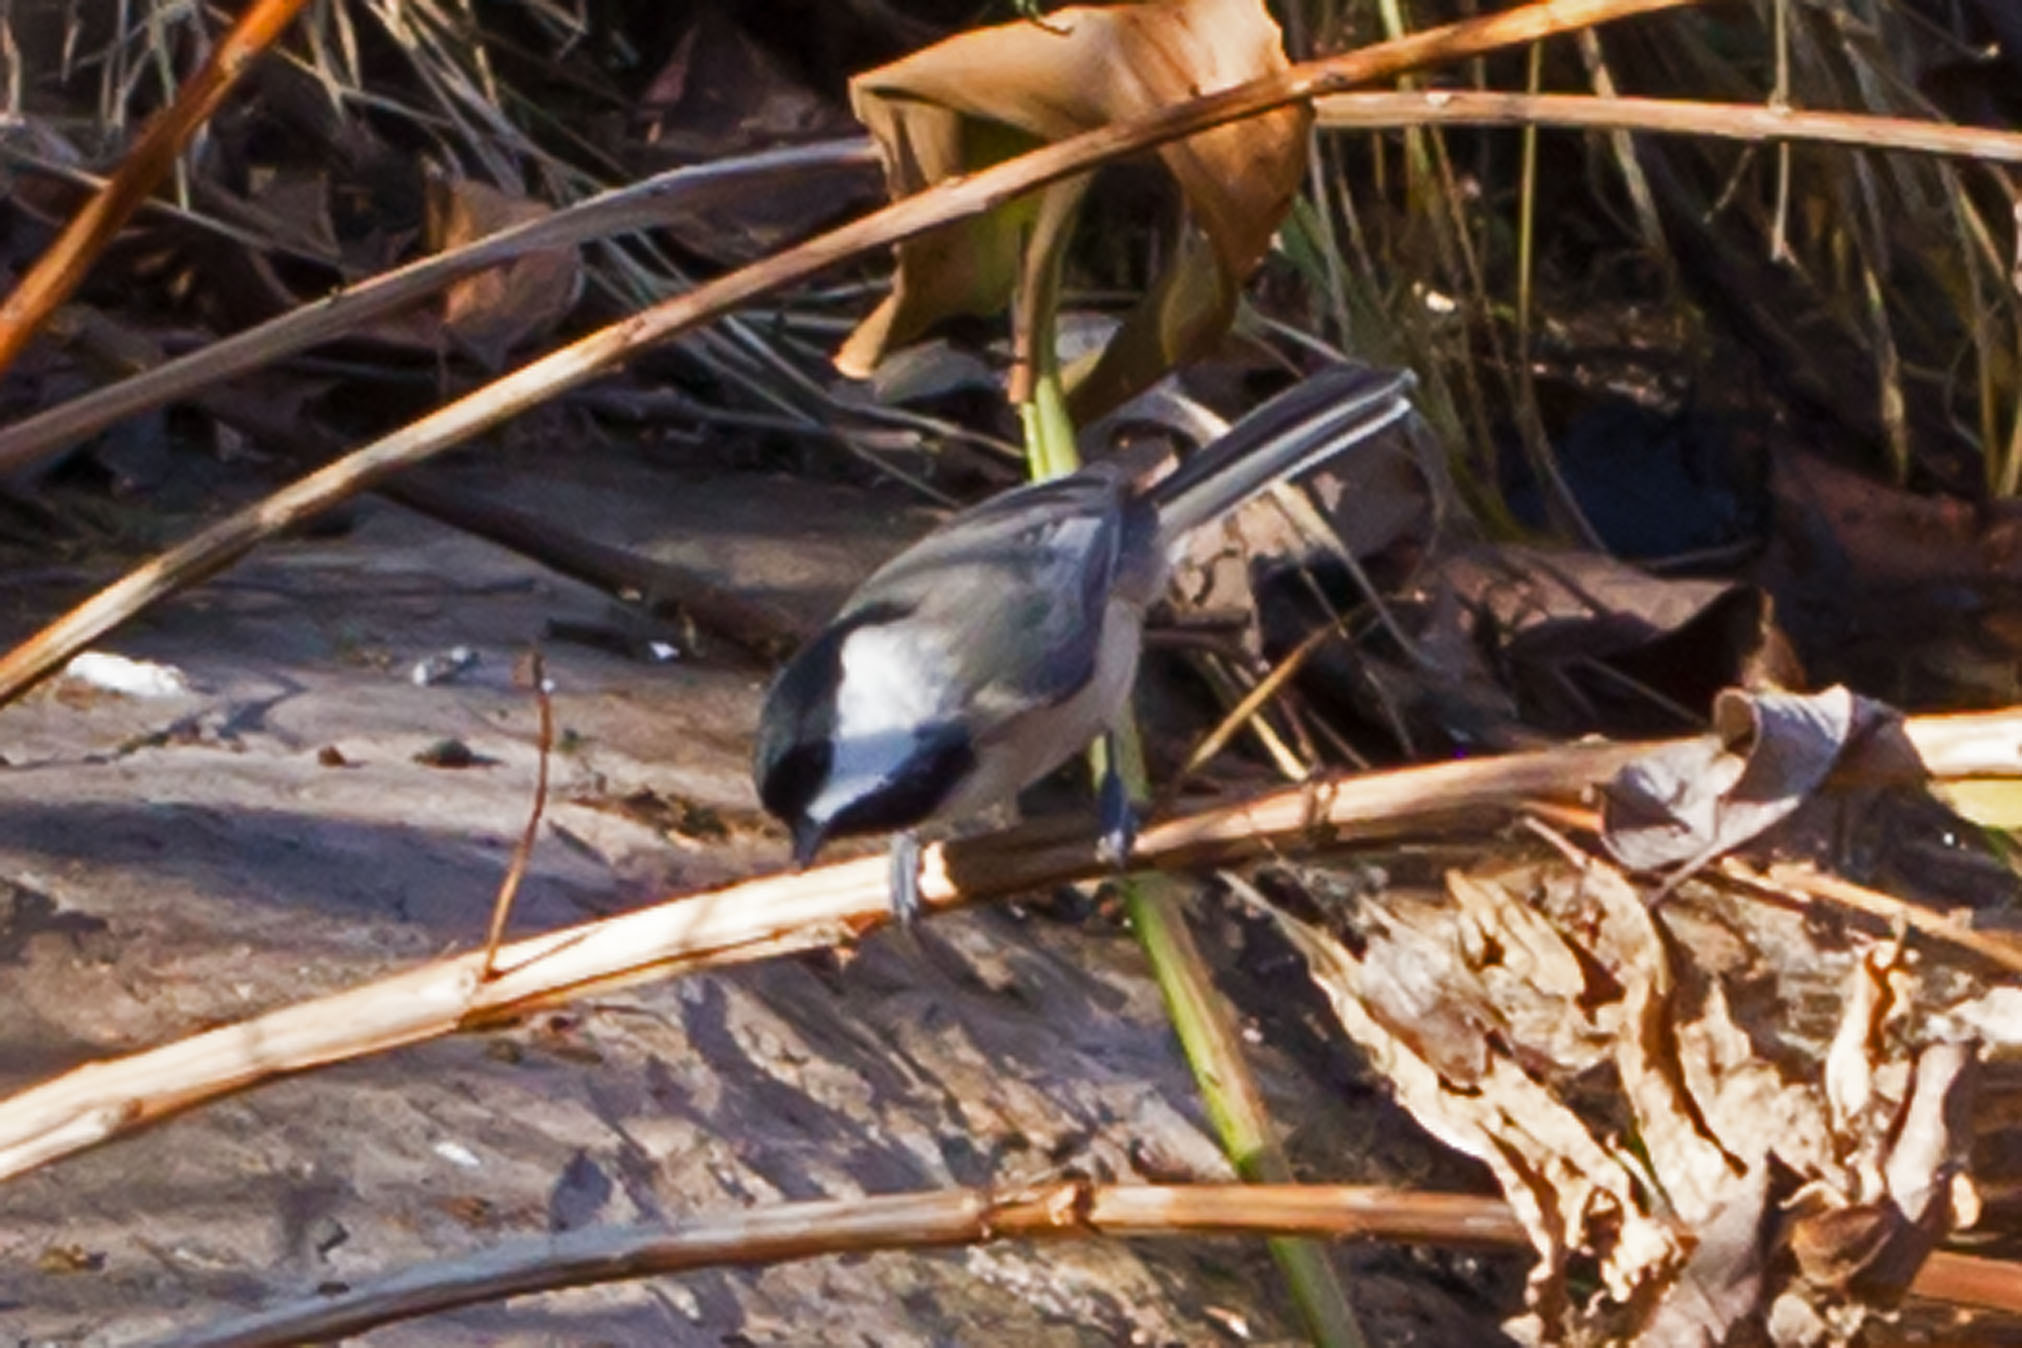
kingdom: Animalia
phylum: Chordata
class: Aves
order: Passeriformes
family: Paridae
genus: Poecile
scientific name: Poecile carolinensis
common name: Carolina chickadee
